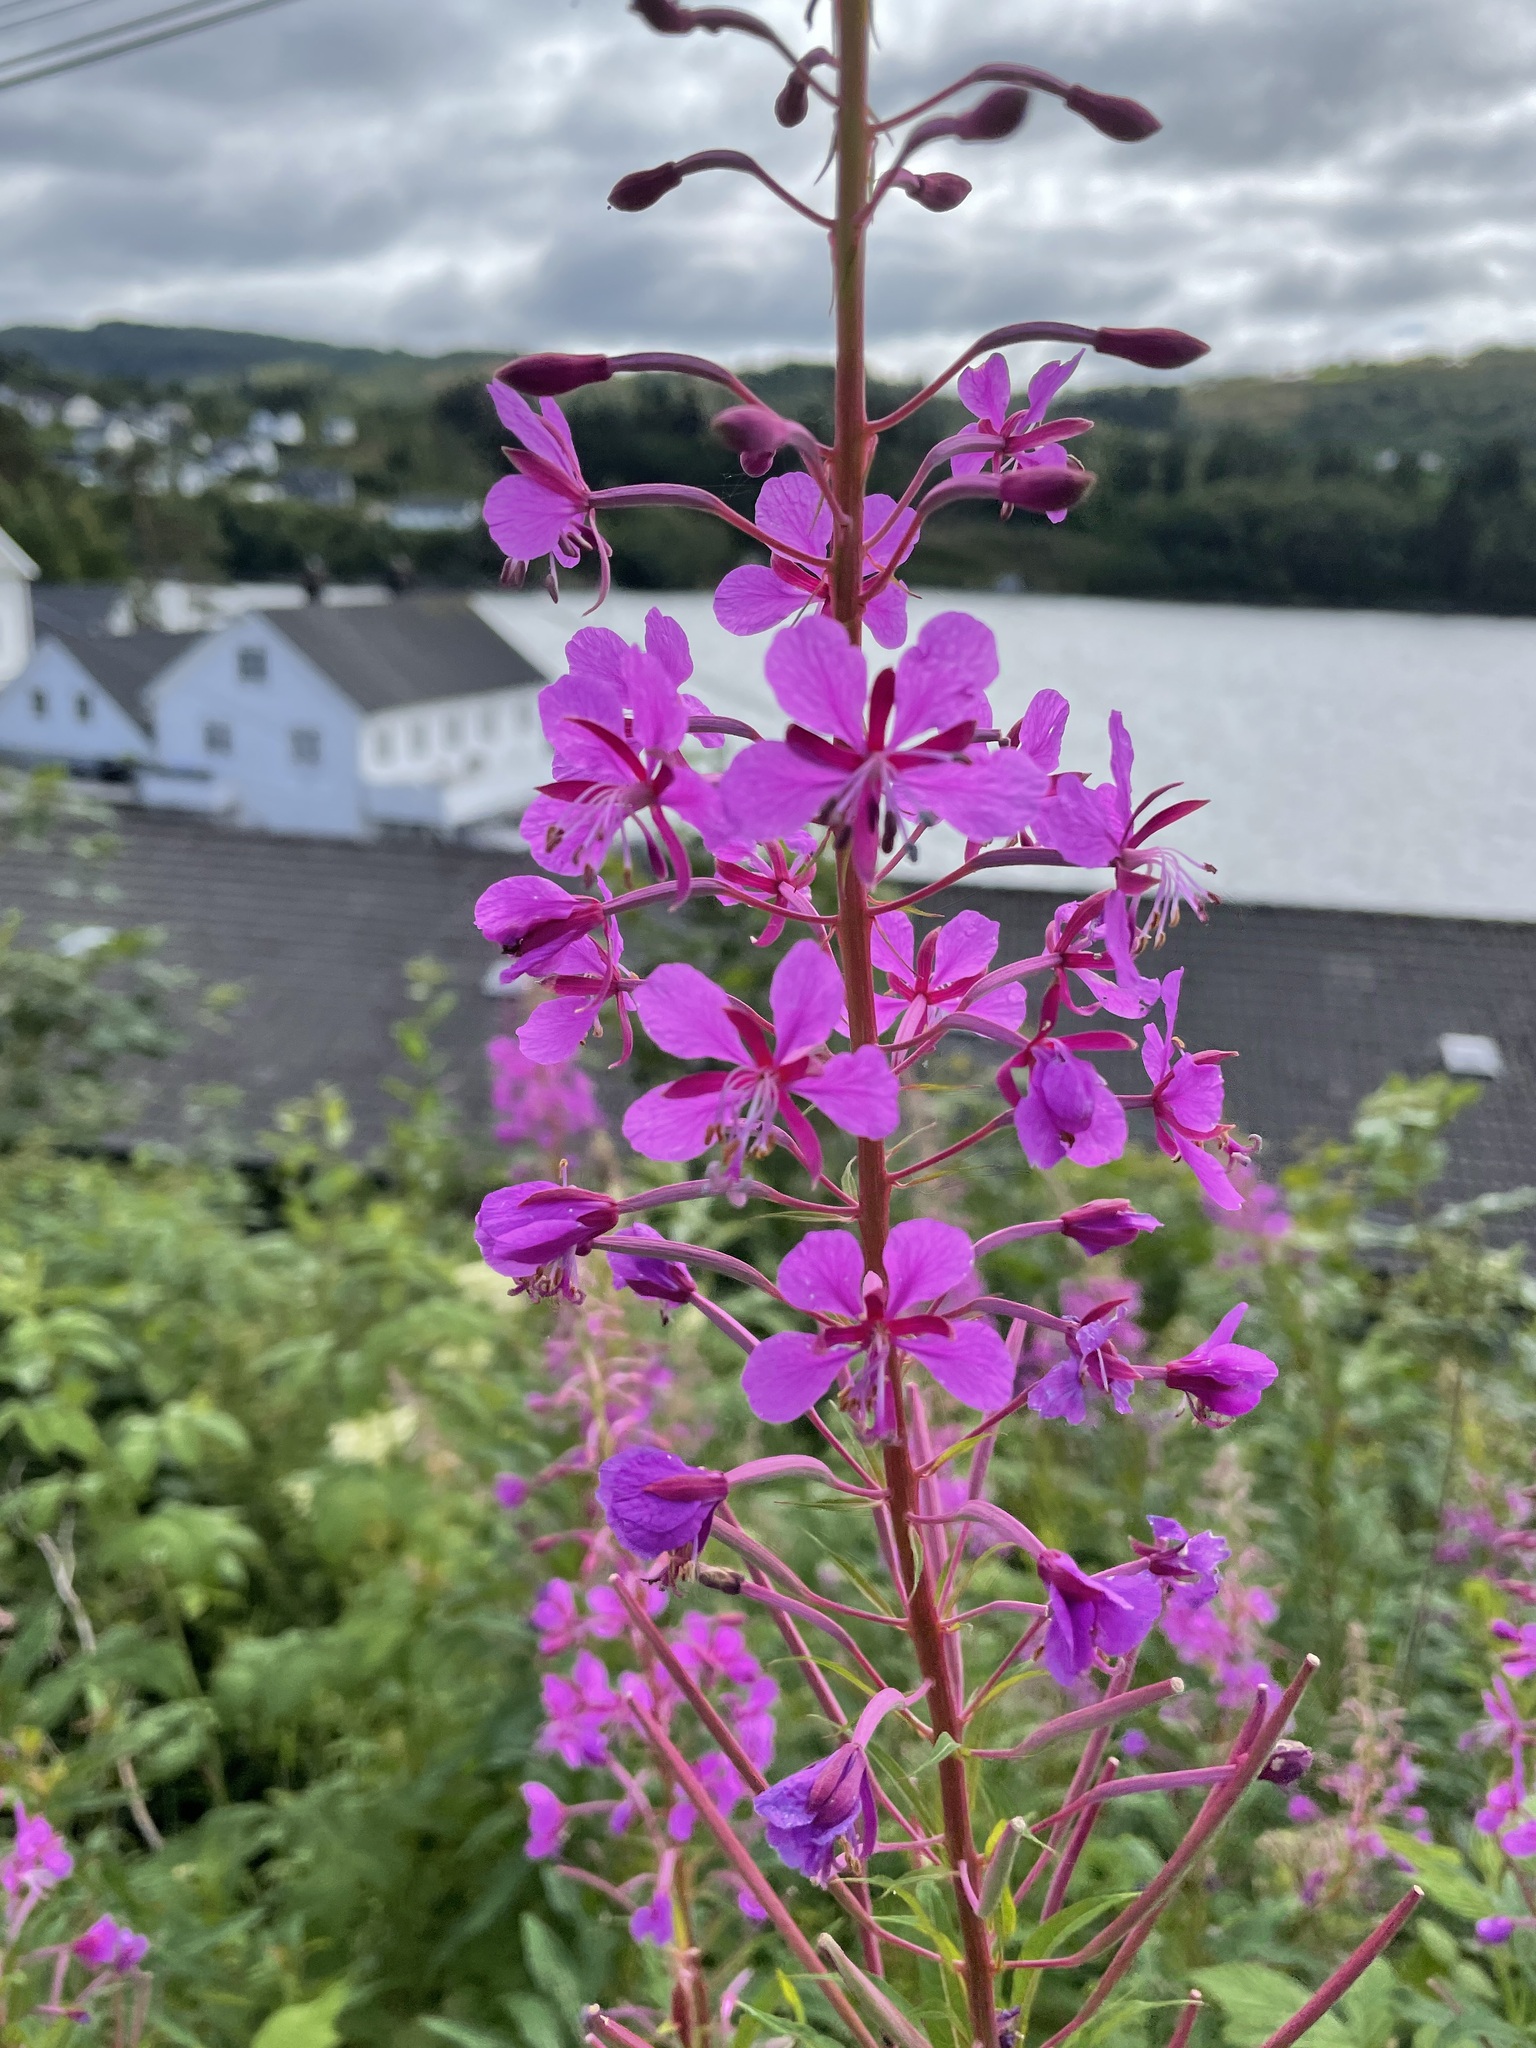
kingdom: Plantae
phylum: Tracheophyta
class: Magnoliopsida
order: Myrtales
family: Onagraceae
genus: Chamaenerion
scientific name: Chamaenerion angustifolium
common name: Fireweed
